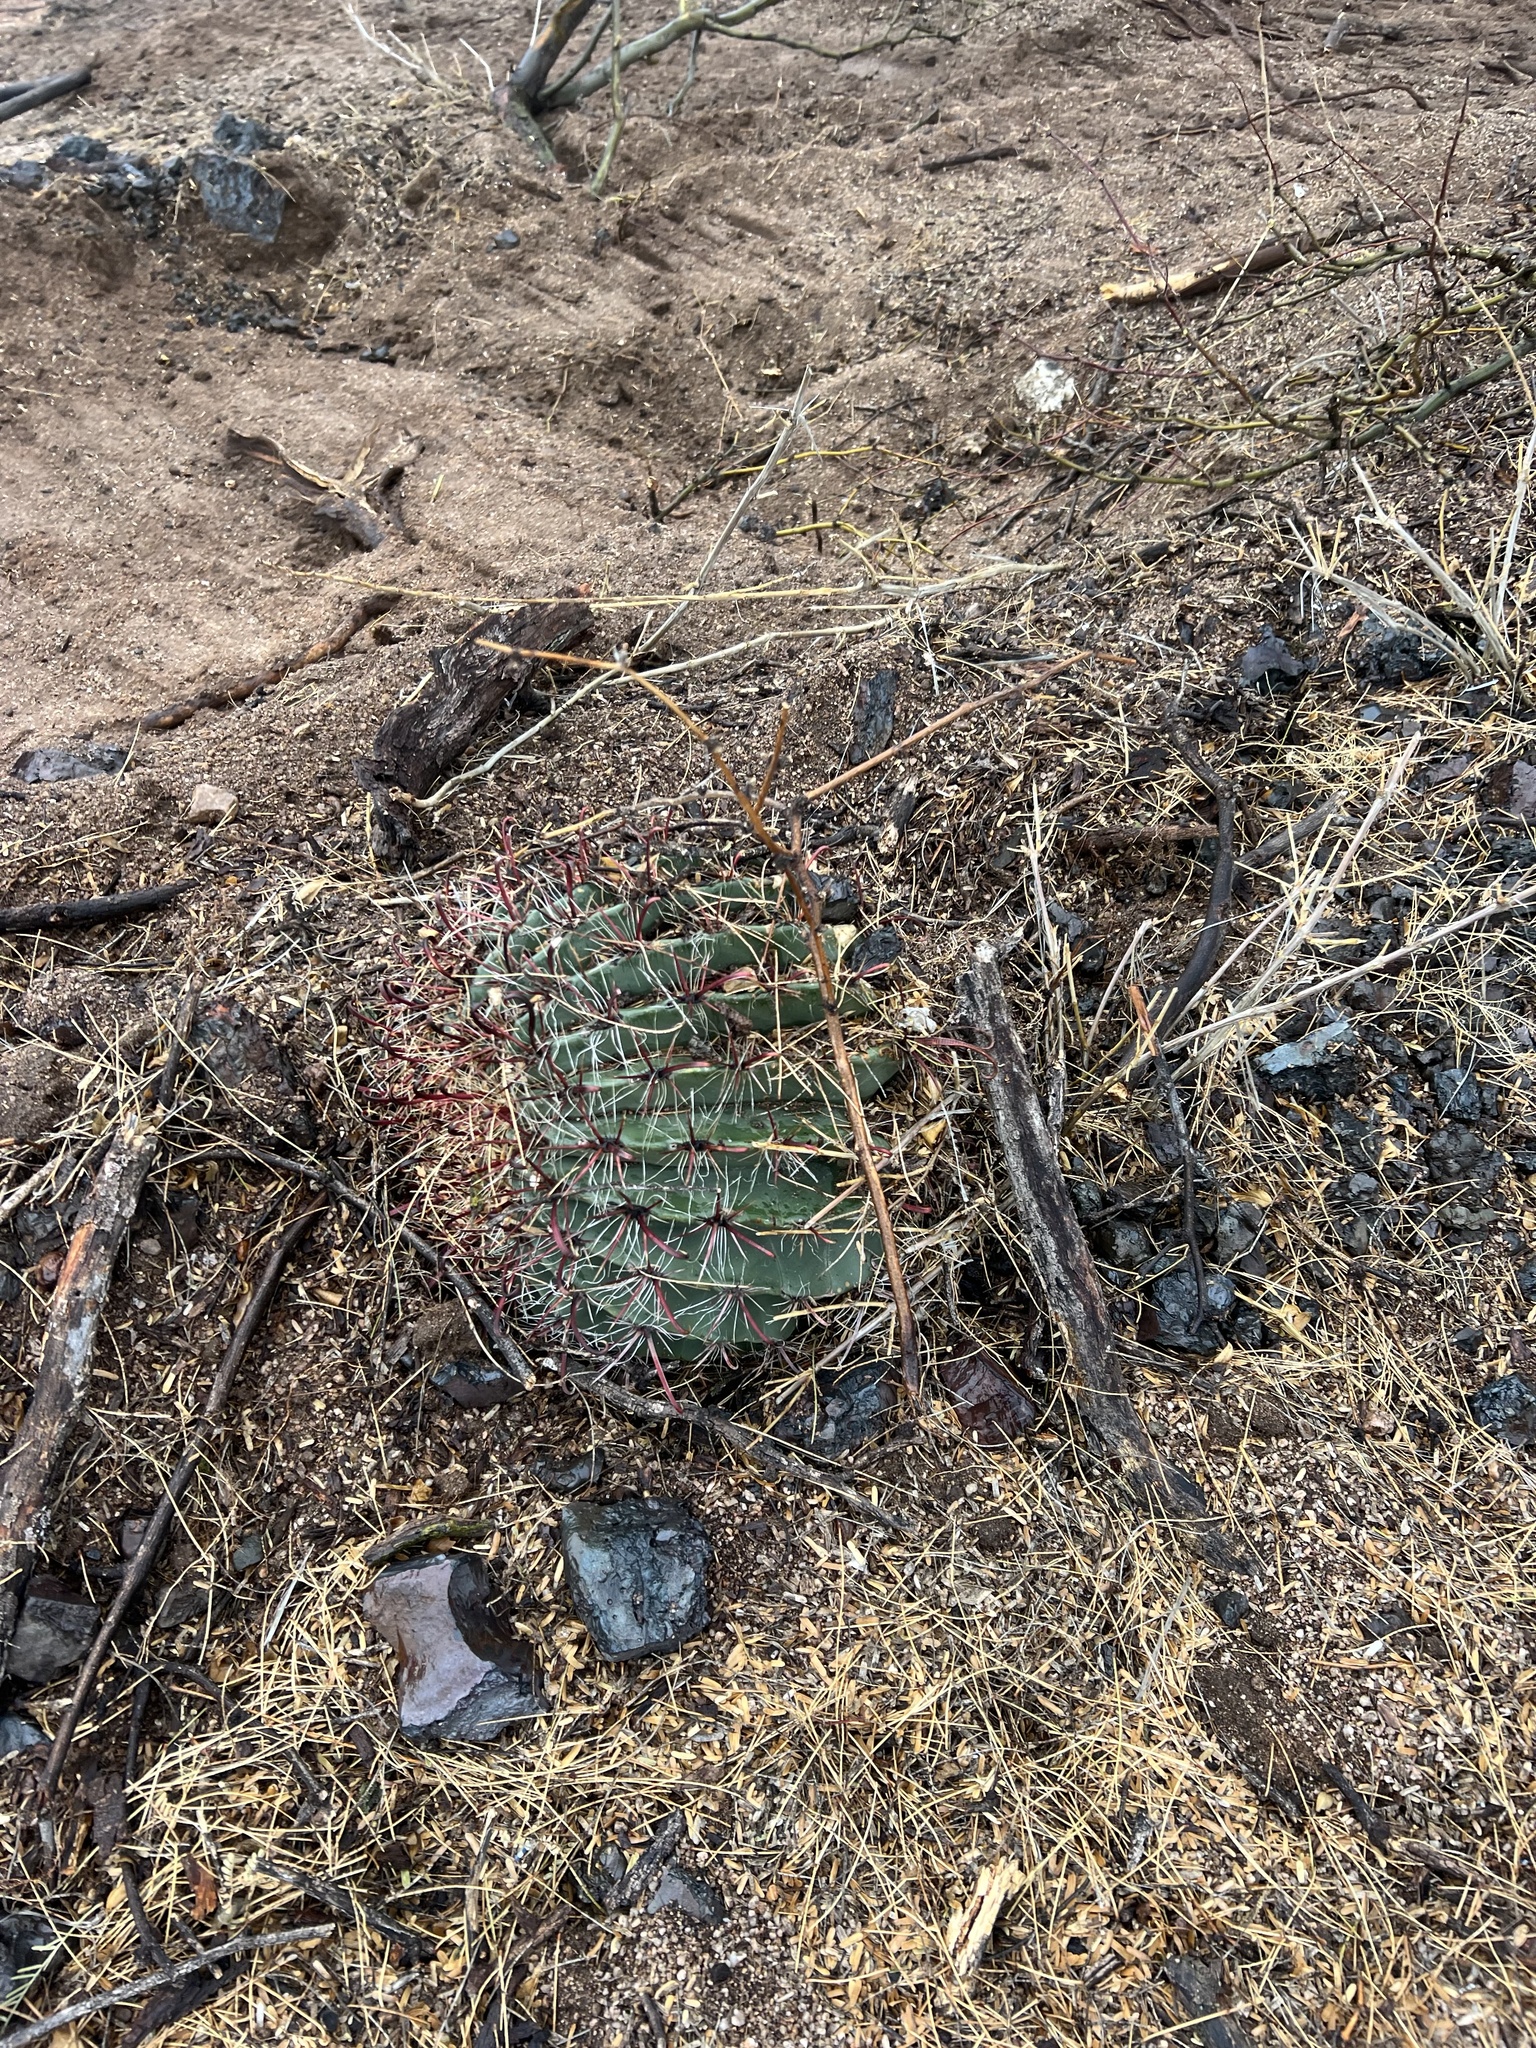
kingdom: Plantae
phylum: Tracheophyta
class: Magnoliopsida
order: Caryophyllales
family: Cactaceae
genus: Ferocactus
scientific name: Ferocactus wislizeni
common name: Candy barrel cactus
